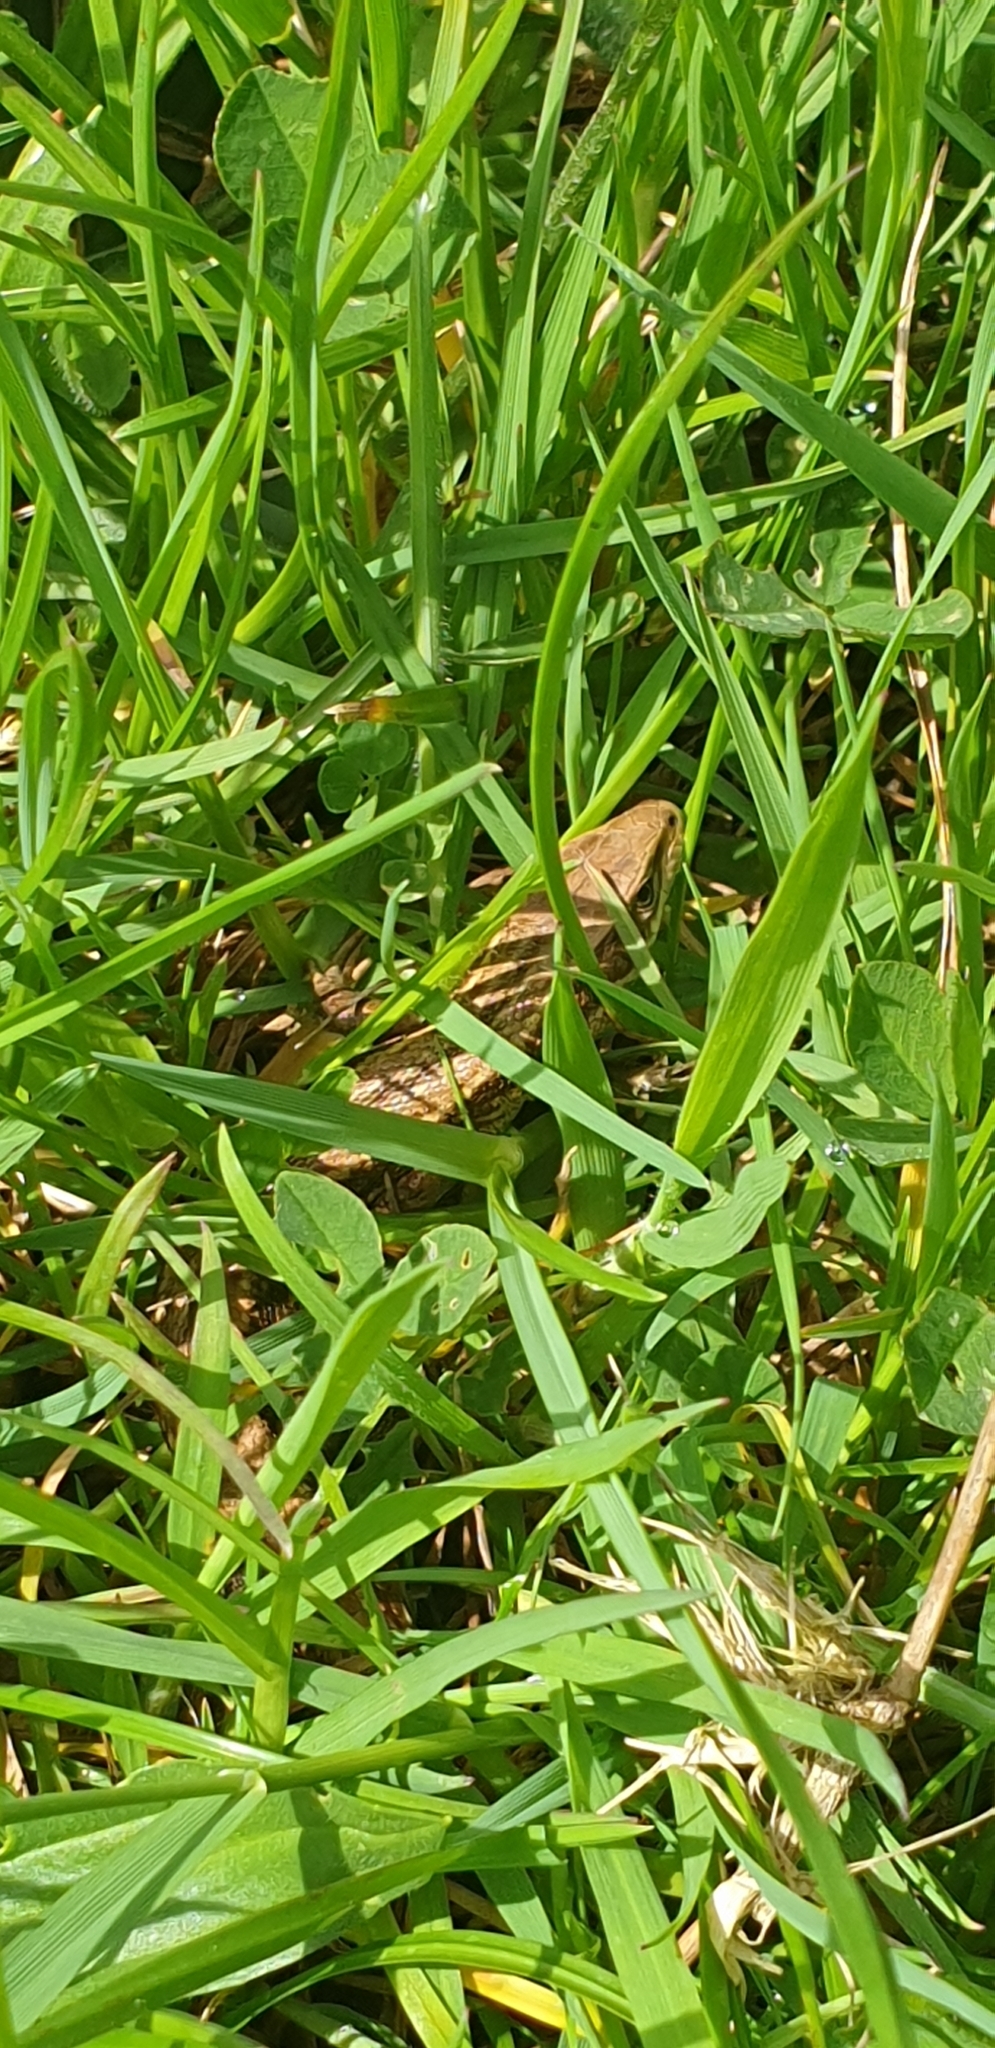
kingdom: Animalia
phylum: Chordata
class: Squamata
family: Lacertidae
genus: Zootoca
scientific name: Zootoca vivipara
